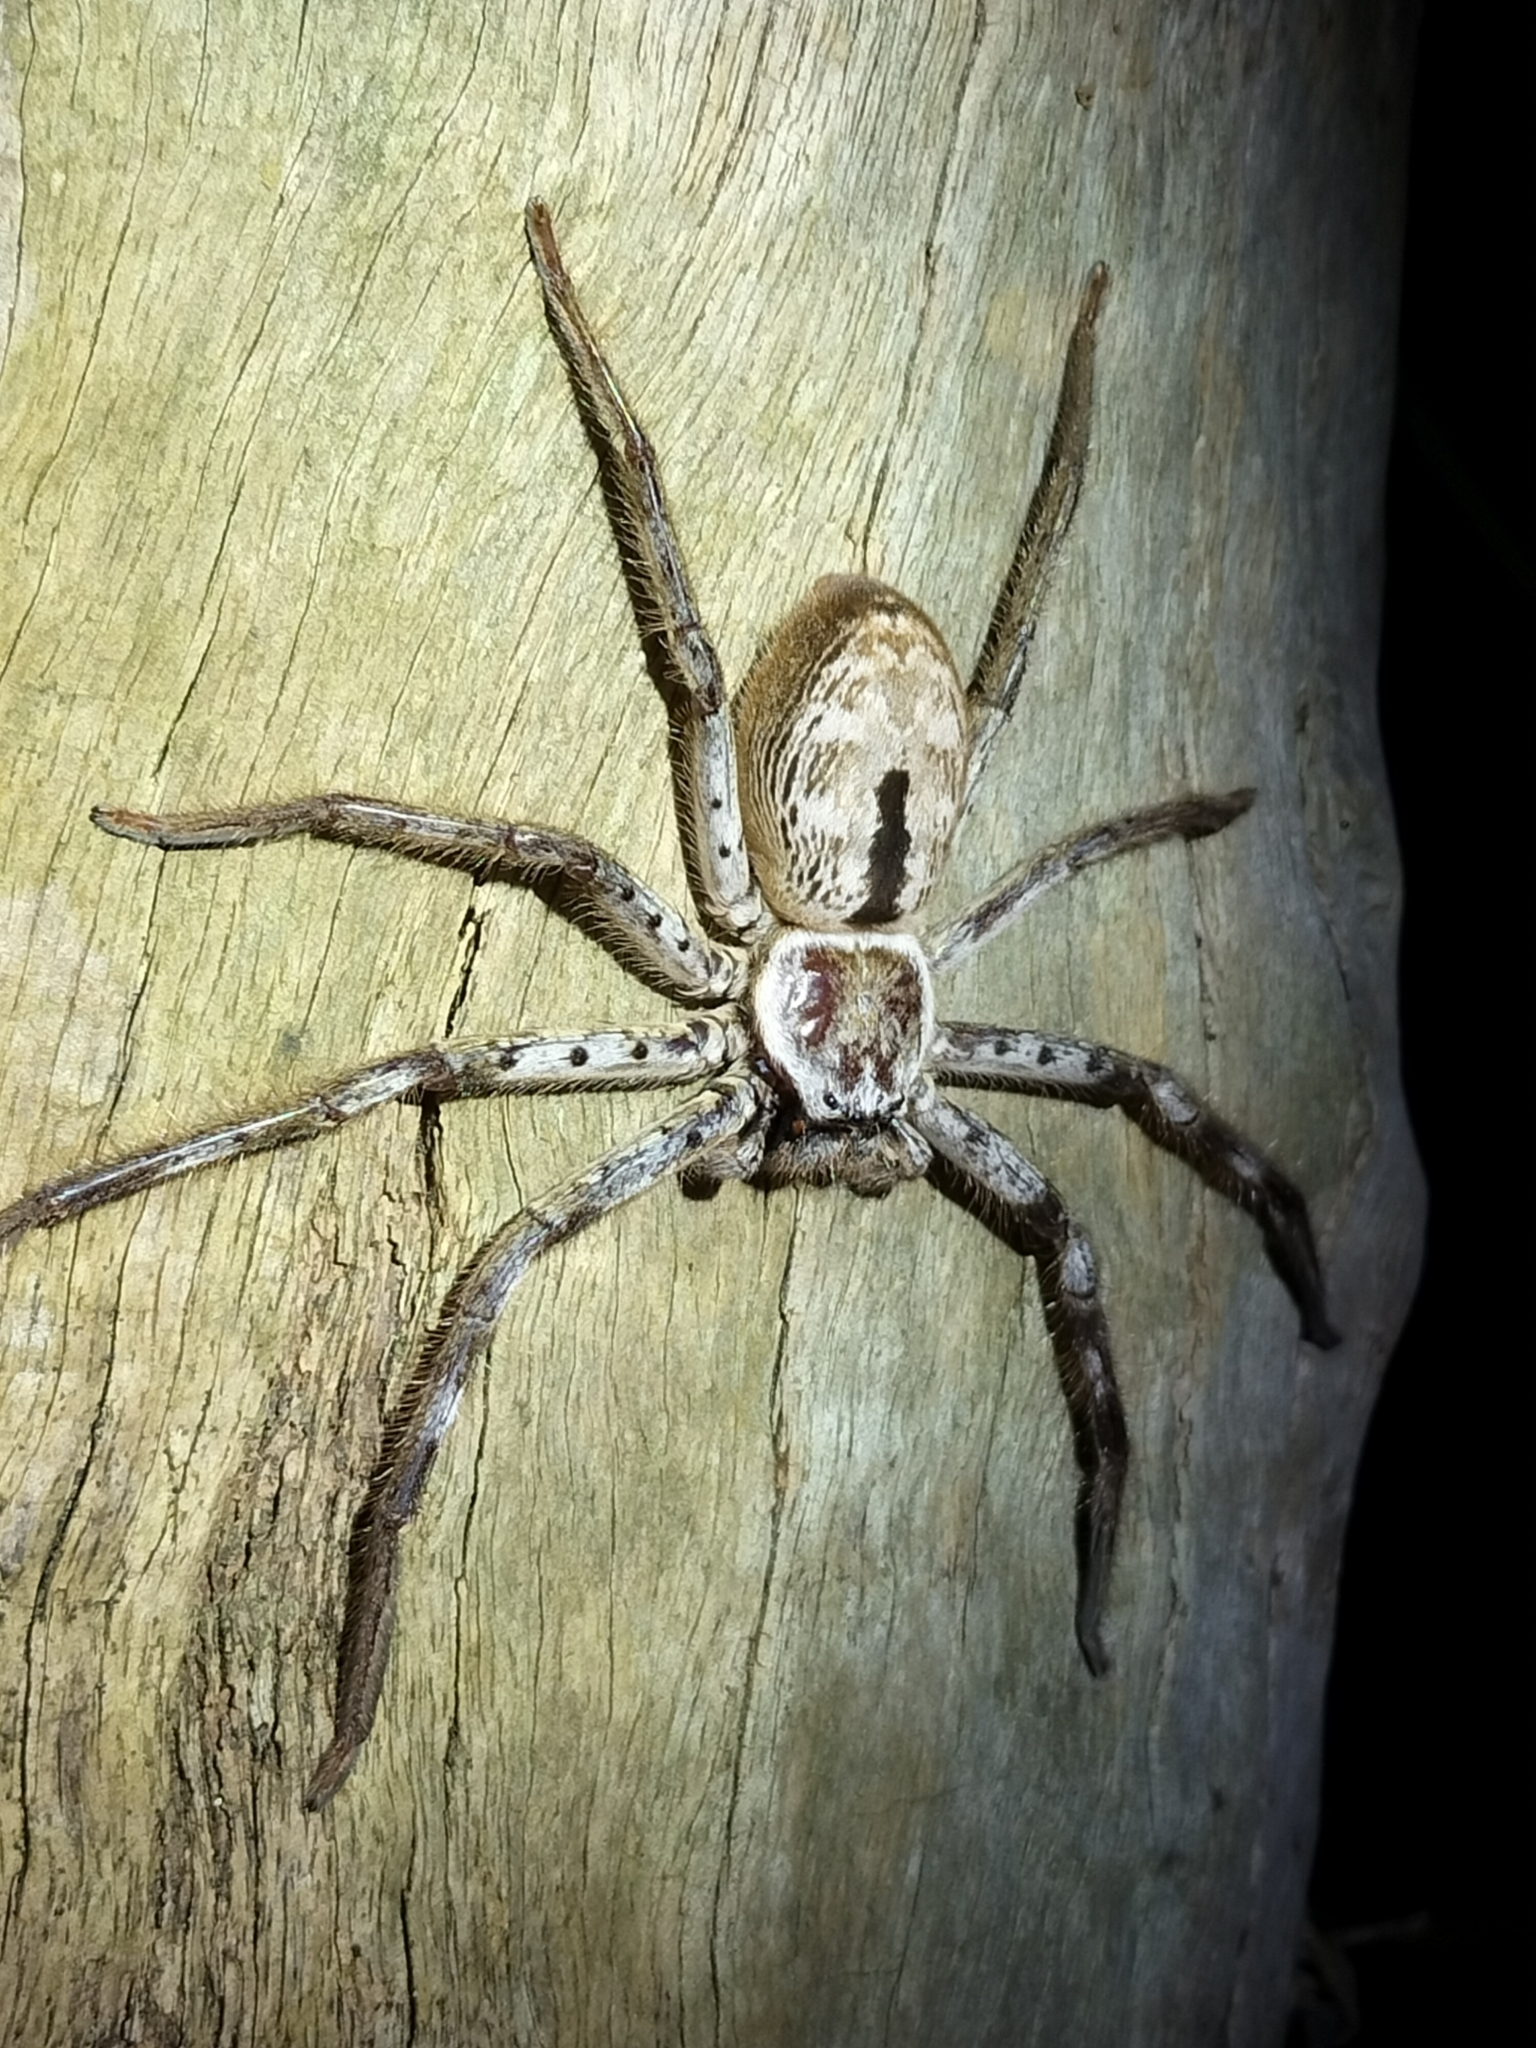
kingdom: Animalia
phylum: Arthropoda
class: Arachnida
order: Araneae
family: Sparassidae
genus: Holconia
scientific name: Holconia immanis
